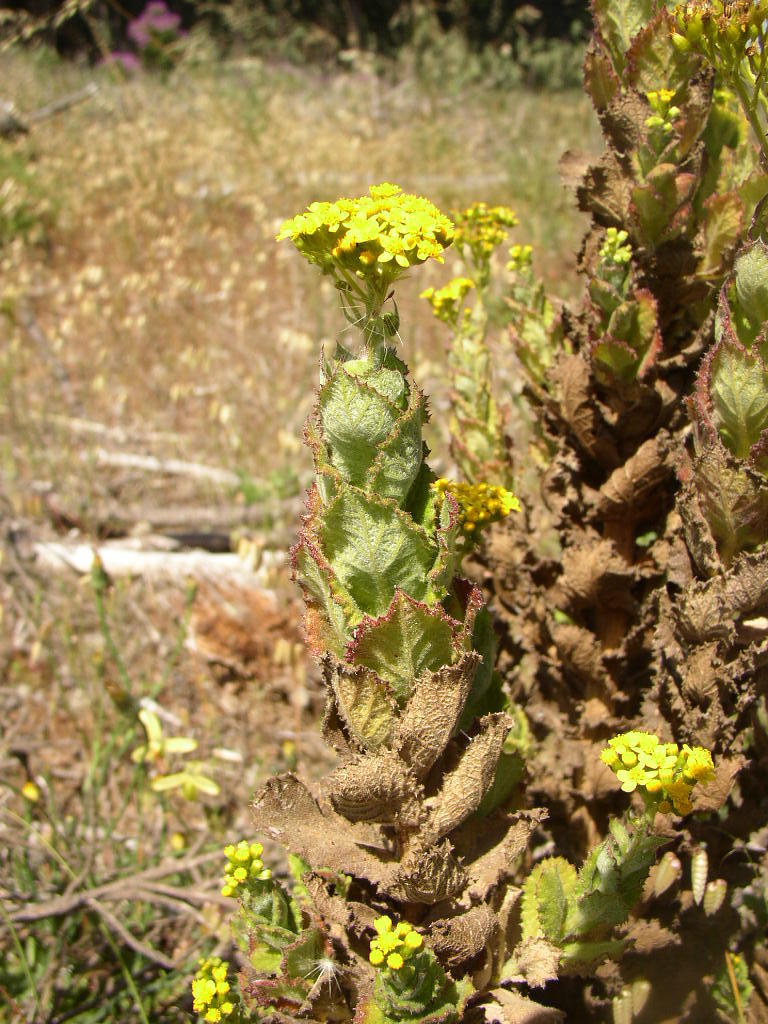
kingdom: Plantae
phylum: Tracheophyta
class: Magnoliopsida
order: Asterales
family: Asteraceae
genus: Senecio
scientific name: Senecio rigidus
